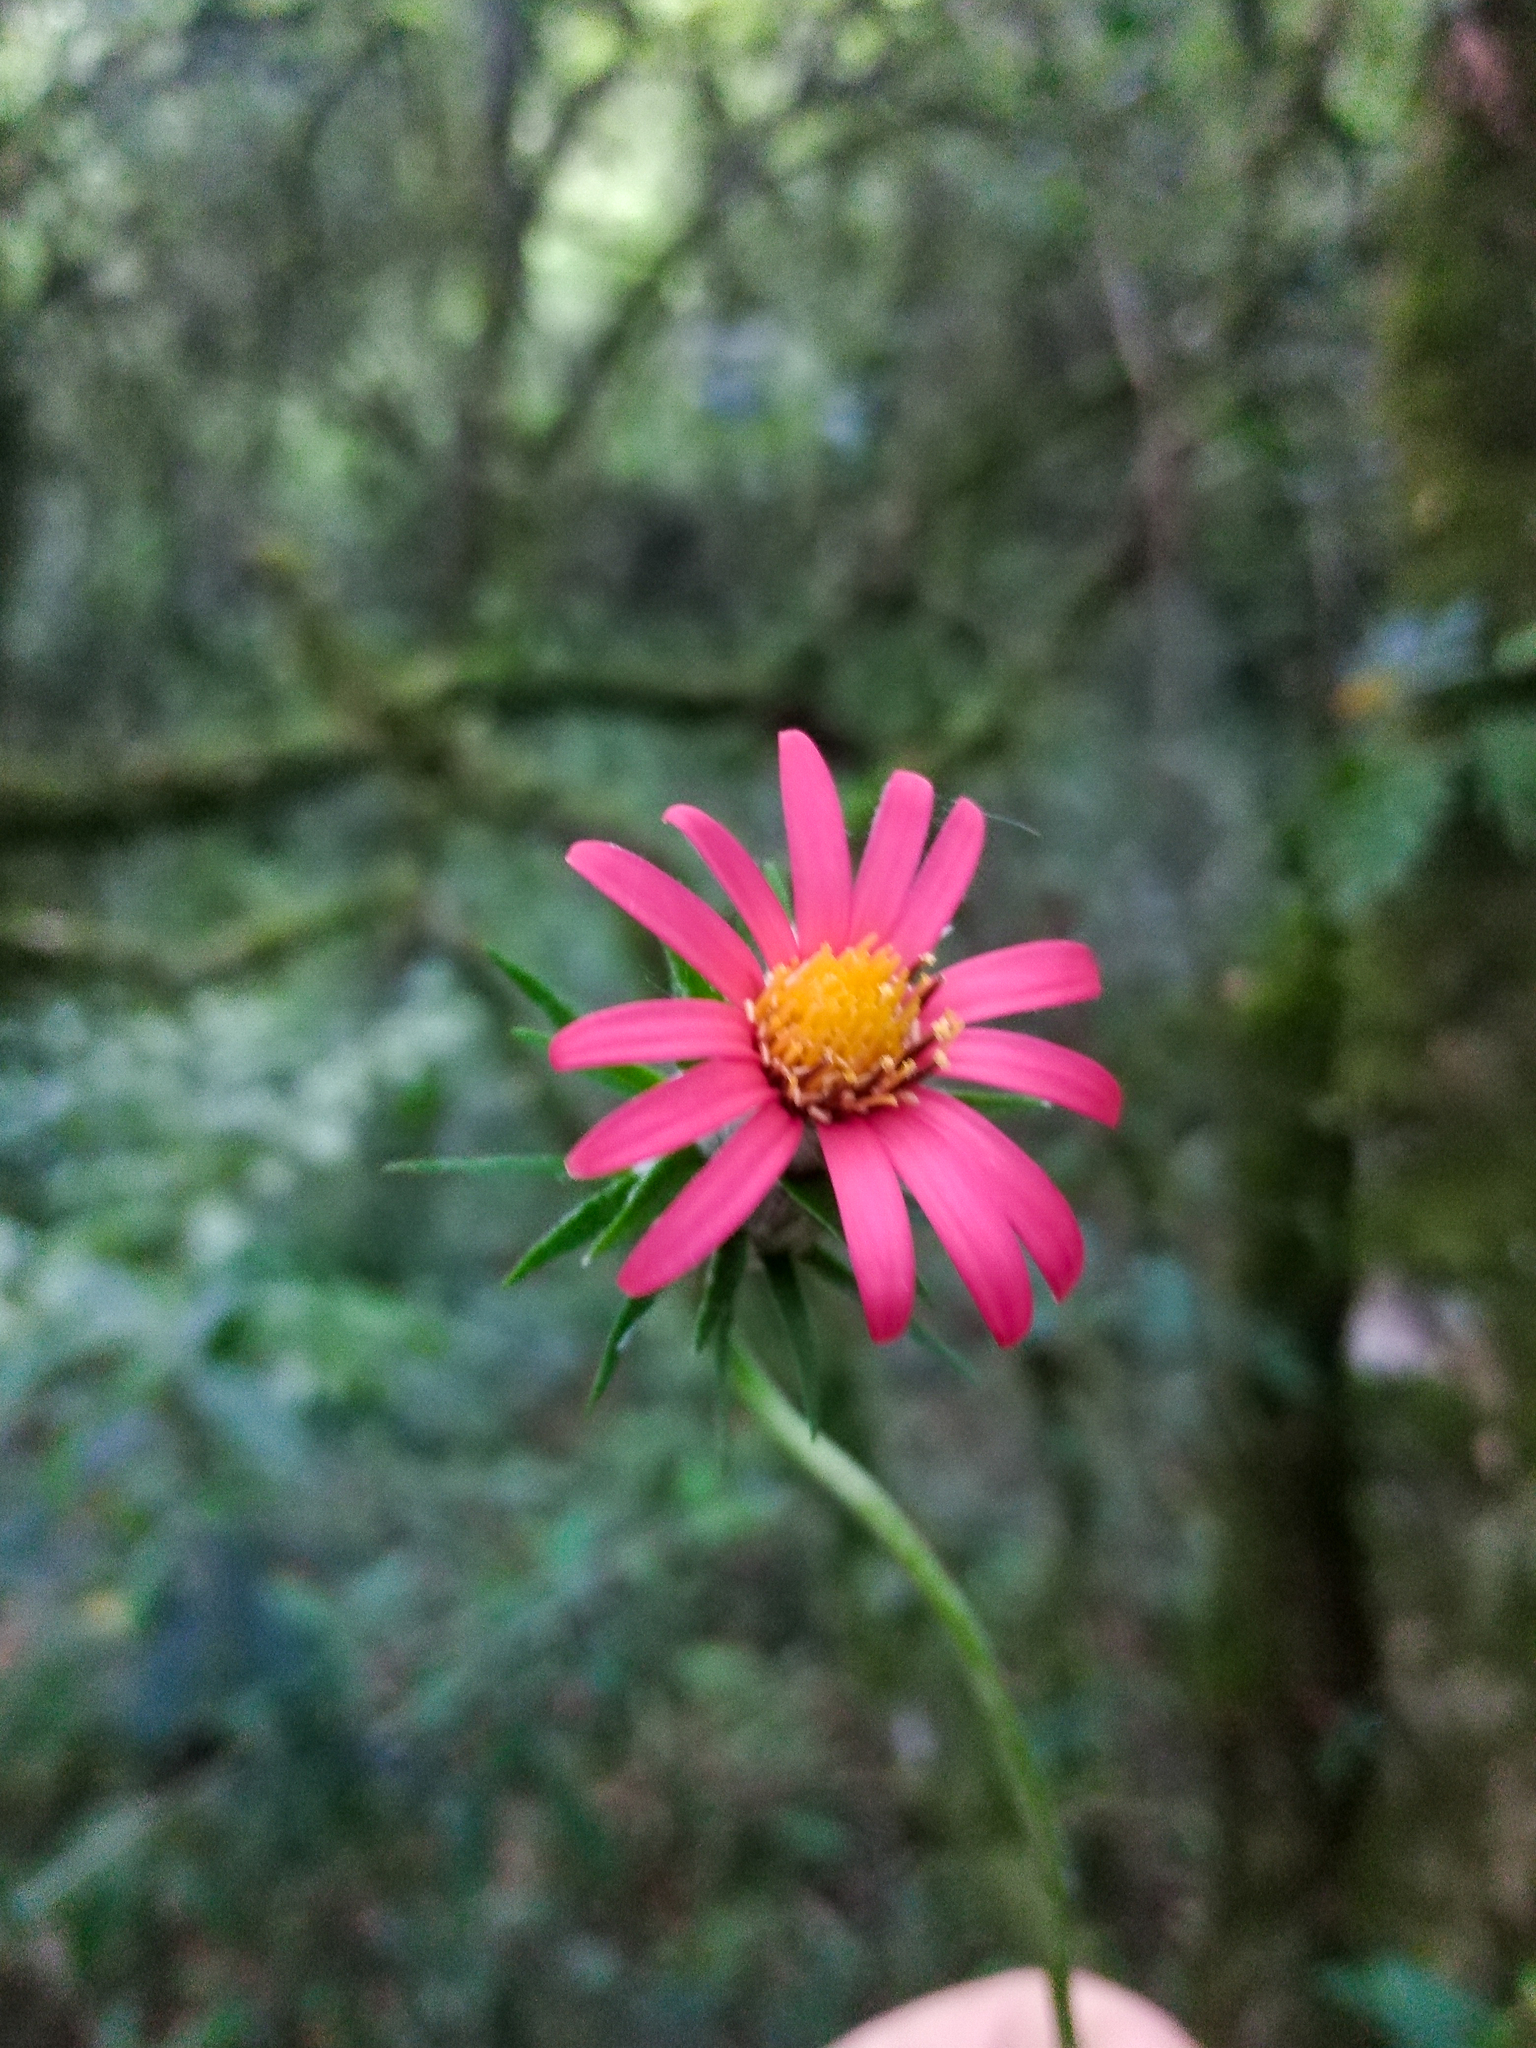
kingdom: Plantae
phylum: Tracheophyta
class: Magnoliopsida
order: Asterales
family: Asteraceae
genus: Mutisia
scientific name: Mutisia coccinea
